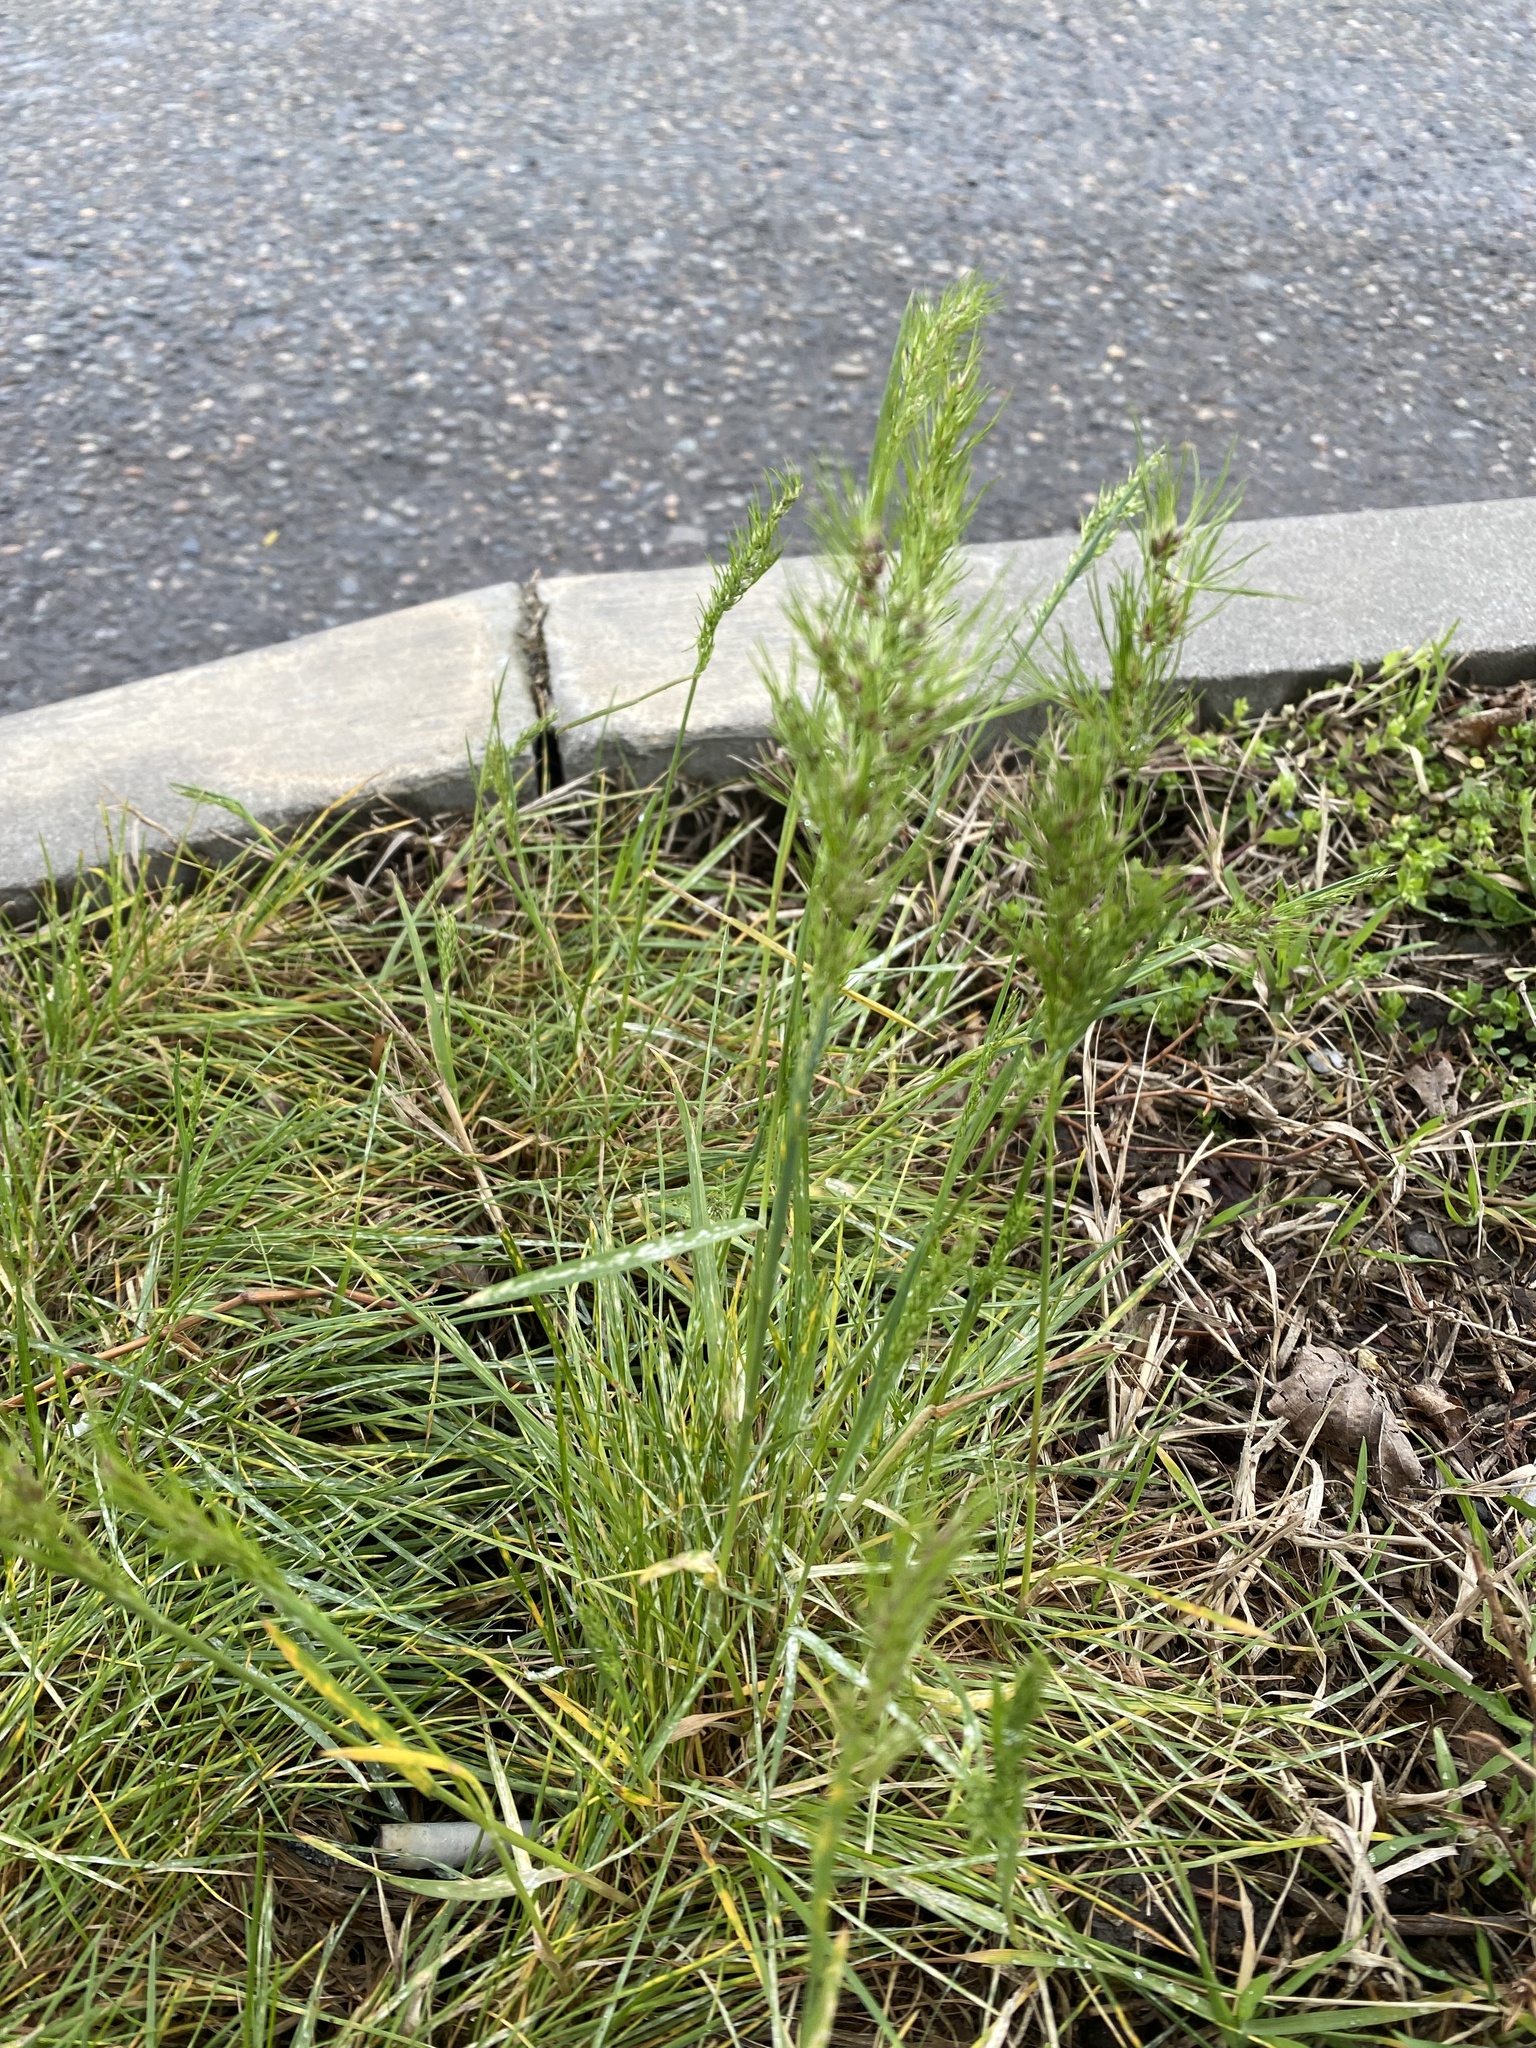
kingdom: Plantae
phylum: Tracheophyta
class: Liliopsida
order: Poales
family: Poaceae
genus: Poa
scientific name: Poa bulbosa
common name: Bulbous bluegrass
